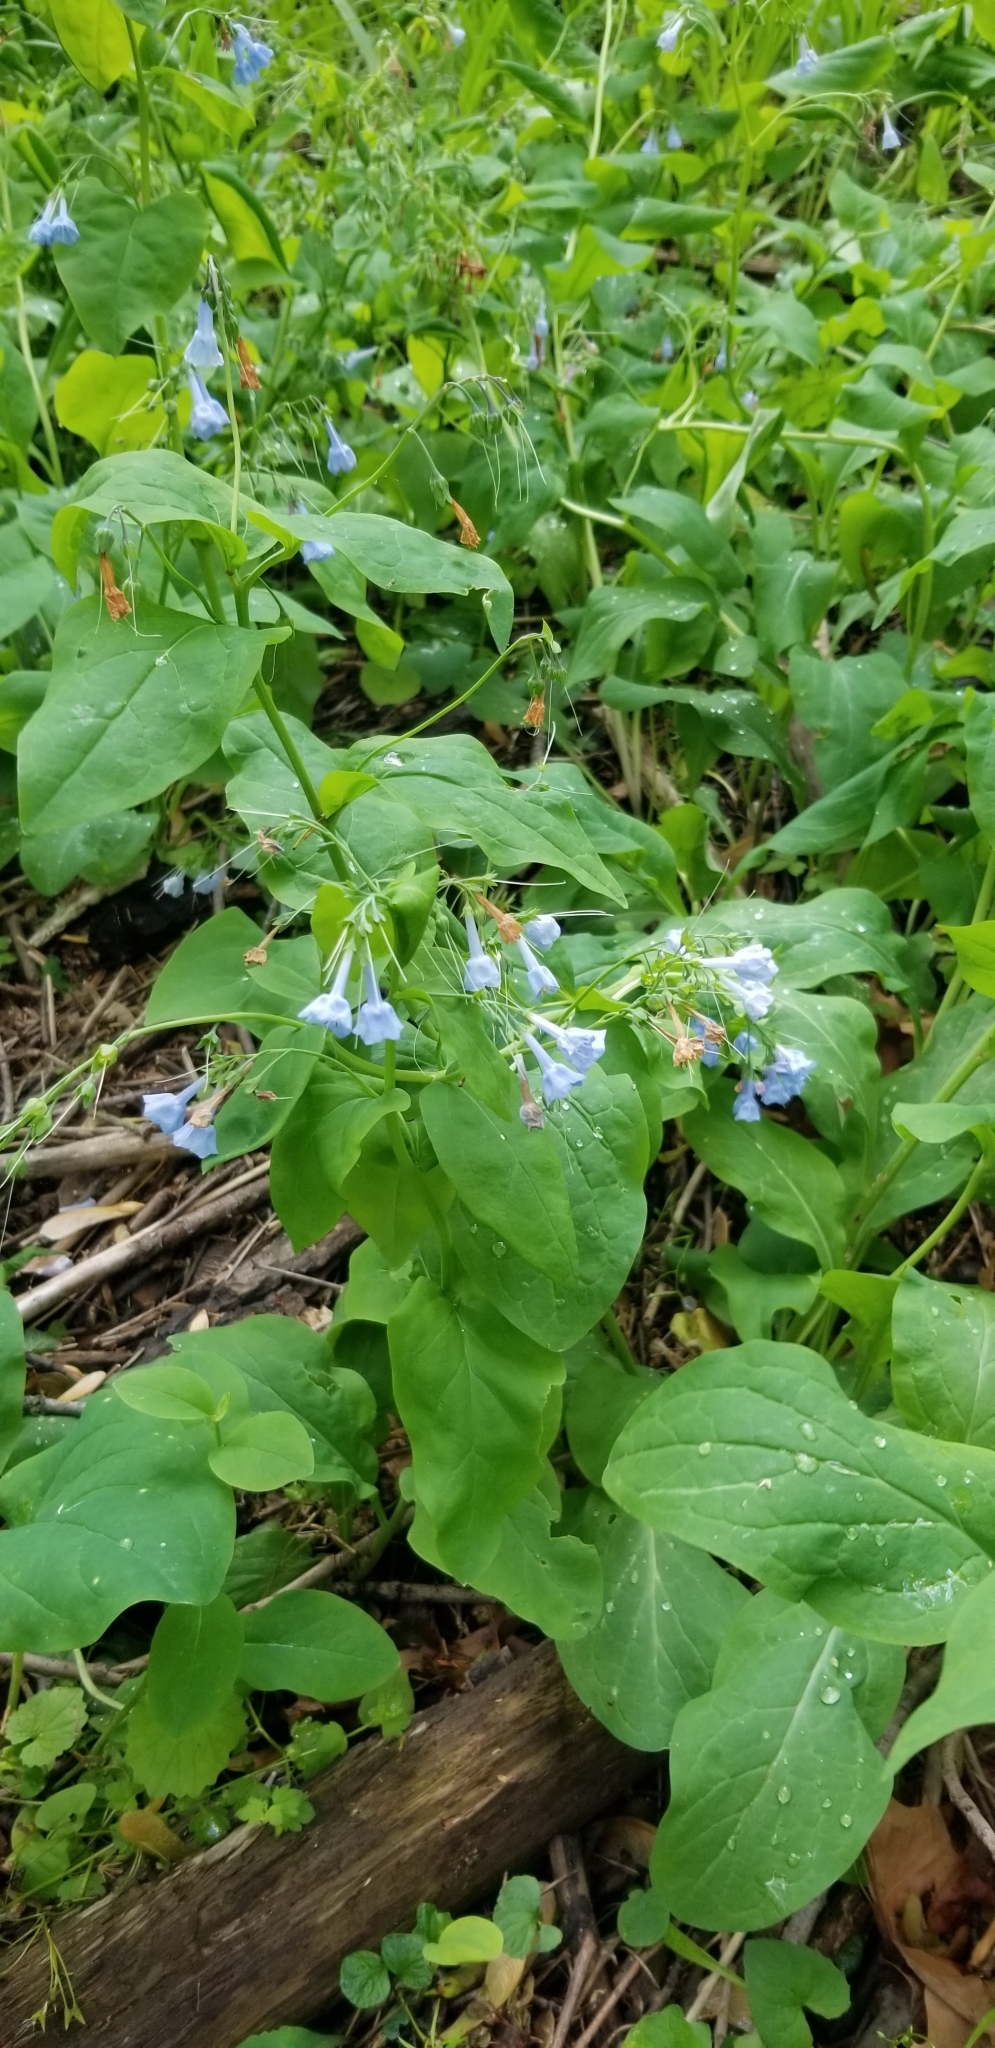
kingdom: Plantae
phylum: Tracheophyta
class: Magnoliopsida
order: Boraginales
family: Boraginaceae
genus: Mertensia
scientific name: Mertensia virginica
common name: Virginia bluebells
